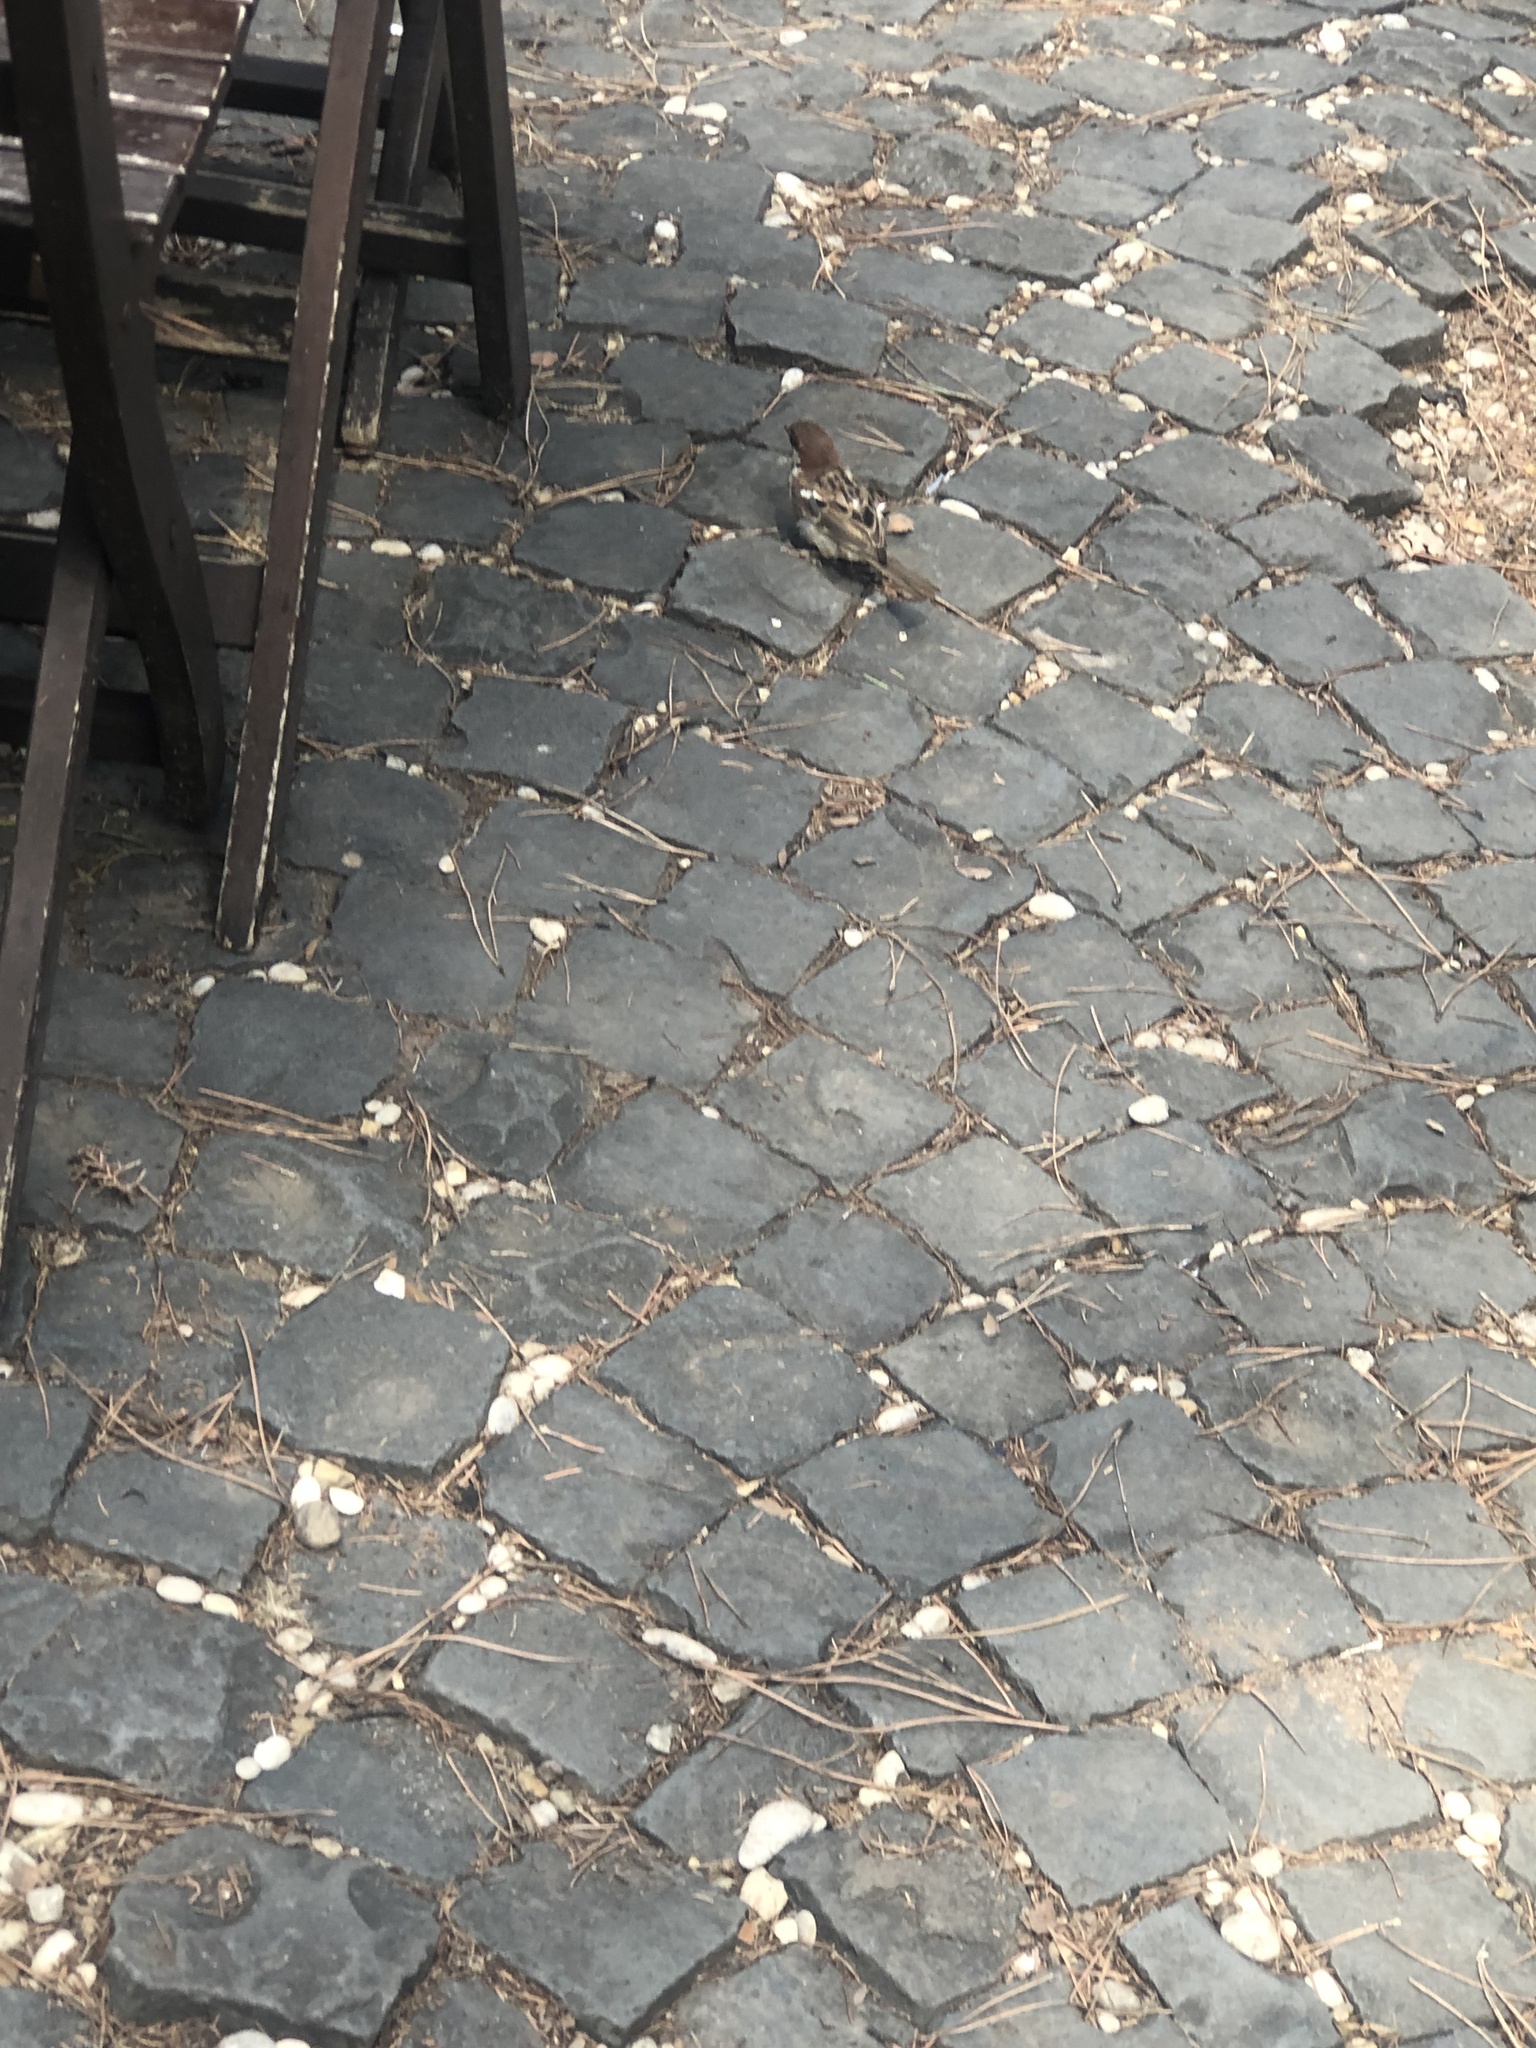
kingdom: Animalia
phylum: Chordata
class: Aves
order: Passeriformes
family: Passeridae
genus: Passer
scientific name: Passer italiae
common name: Italian sparrow
